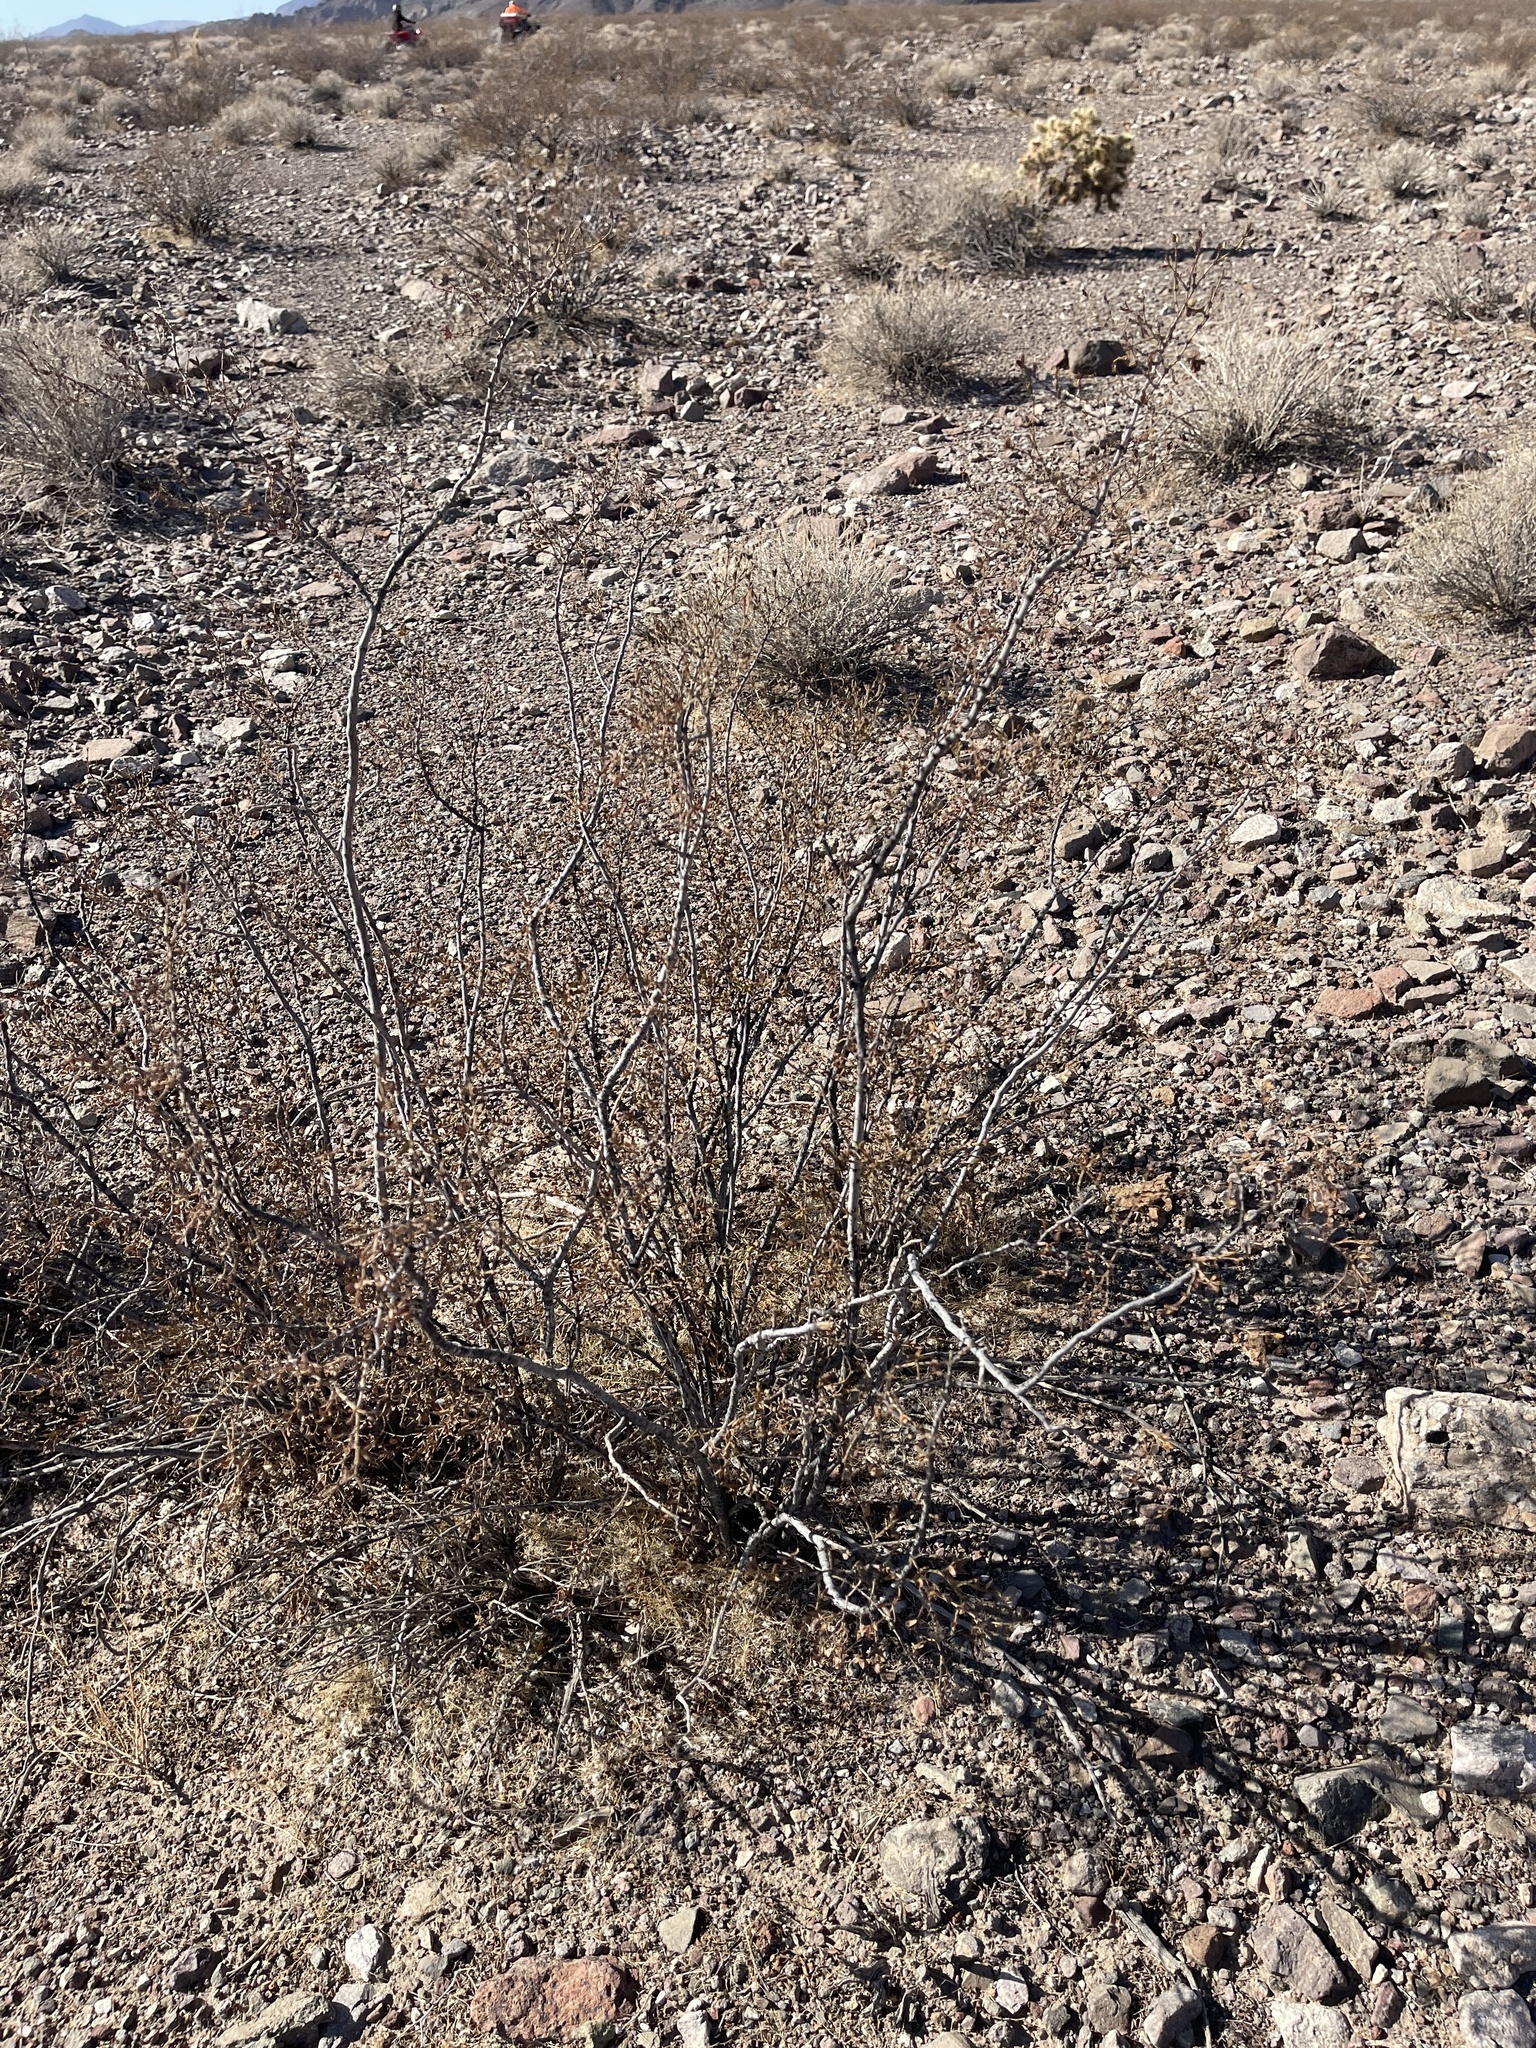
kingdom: Plantae
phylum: Tracheophyta
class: Magnoliopsida
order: Zygophyllales
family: Zygophyllaceae
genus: Larrea
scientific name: Larrea tridentata
